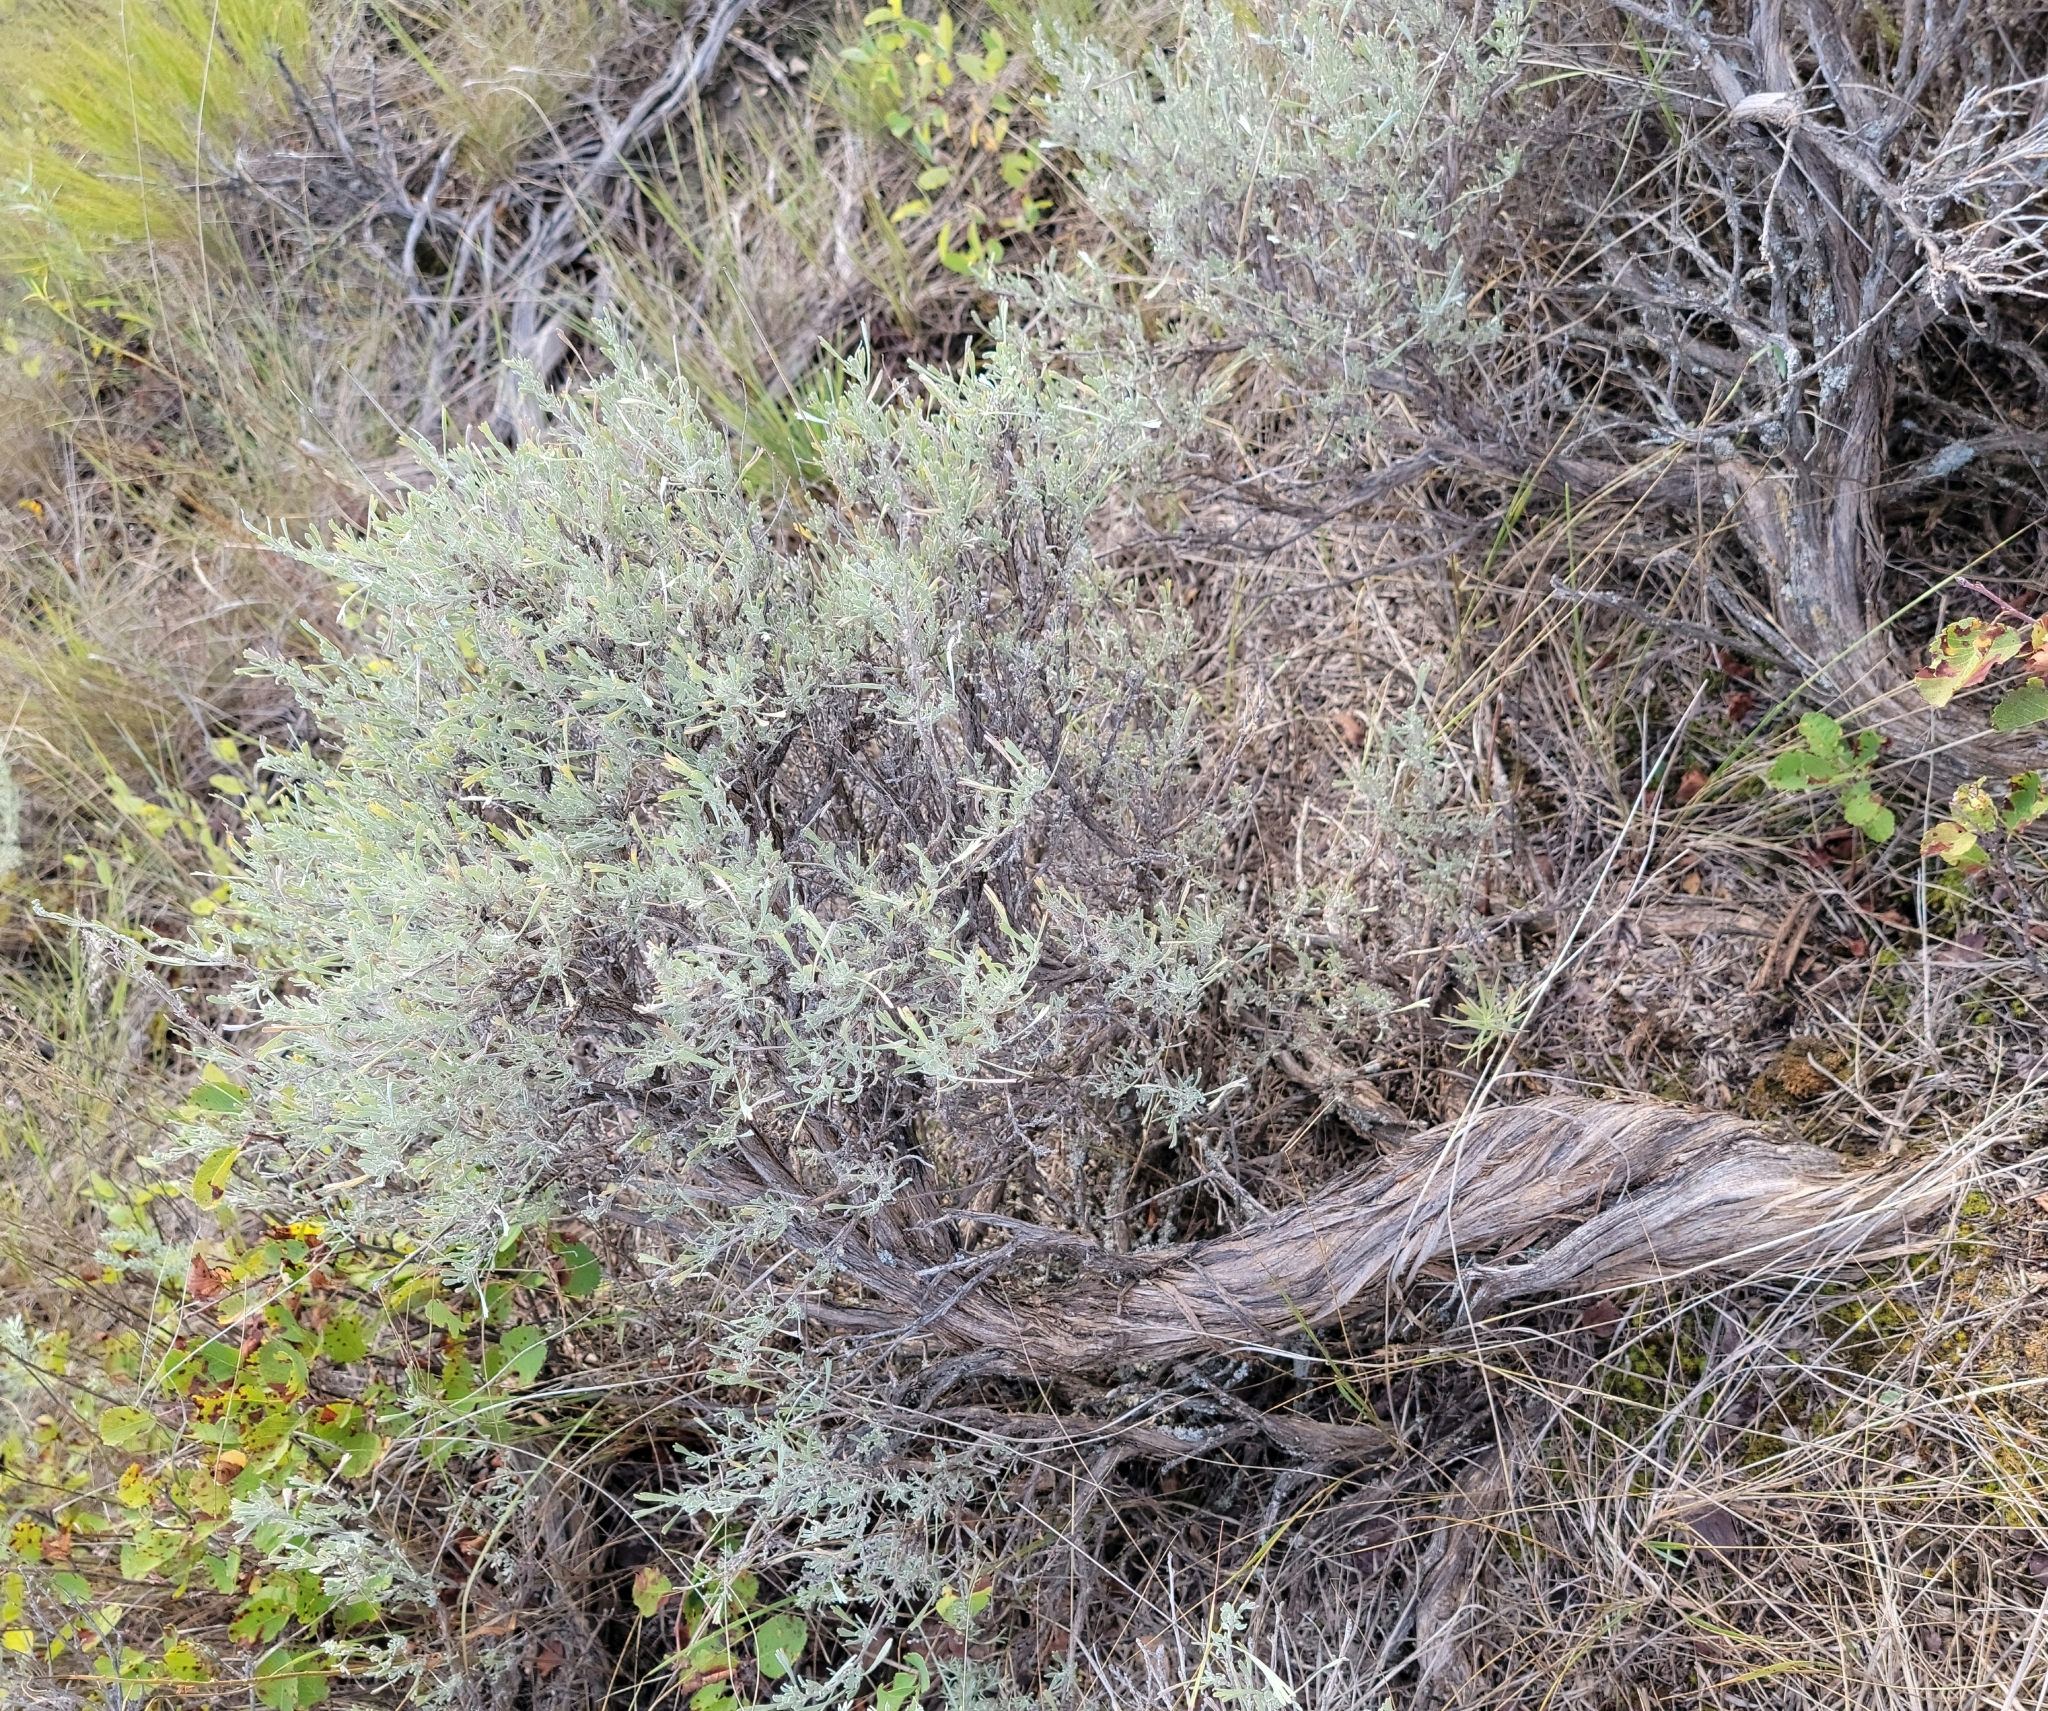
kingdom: Plantae
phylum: Tracheophyta
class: Magnoliopsida
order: Asterales
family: Asteraceae
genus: Artemisia
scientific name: Artemisia tridentata
